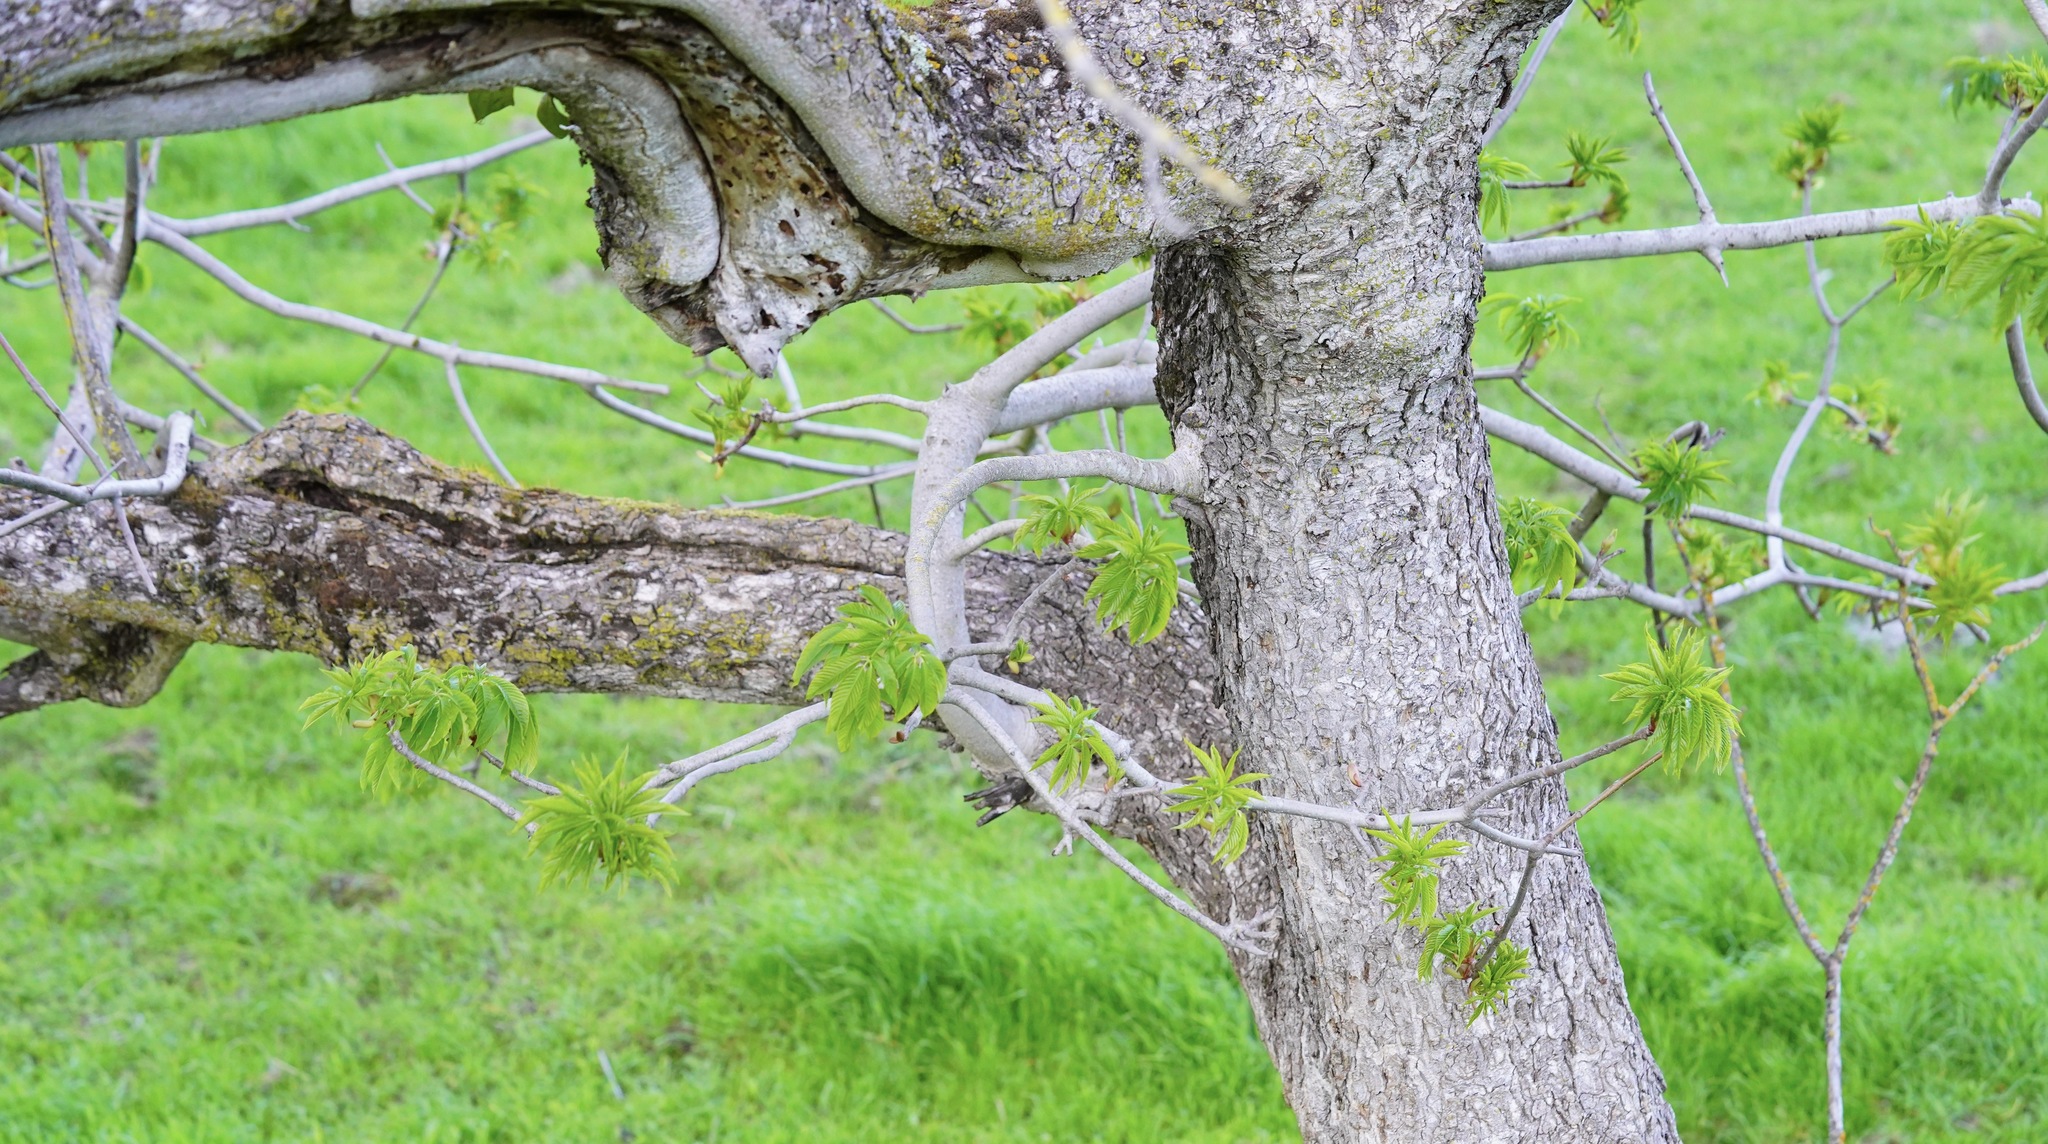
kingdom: Plantae
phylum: Tracheophyta
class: Magnoliopsida
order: Sapindales
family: Sapindaceae
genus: Aesculus
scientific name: Aesculus californica
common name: California buckeye
